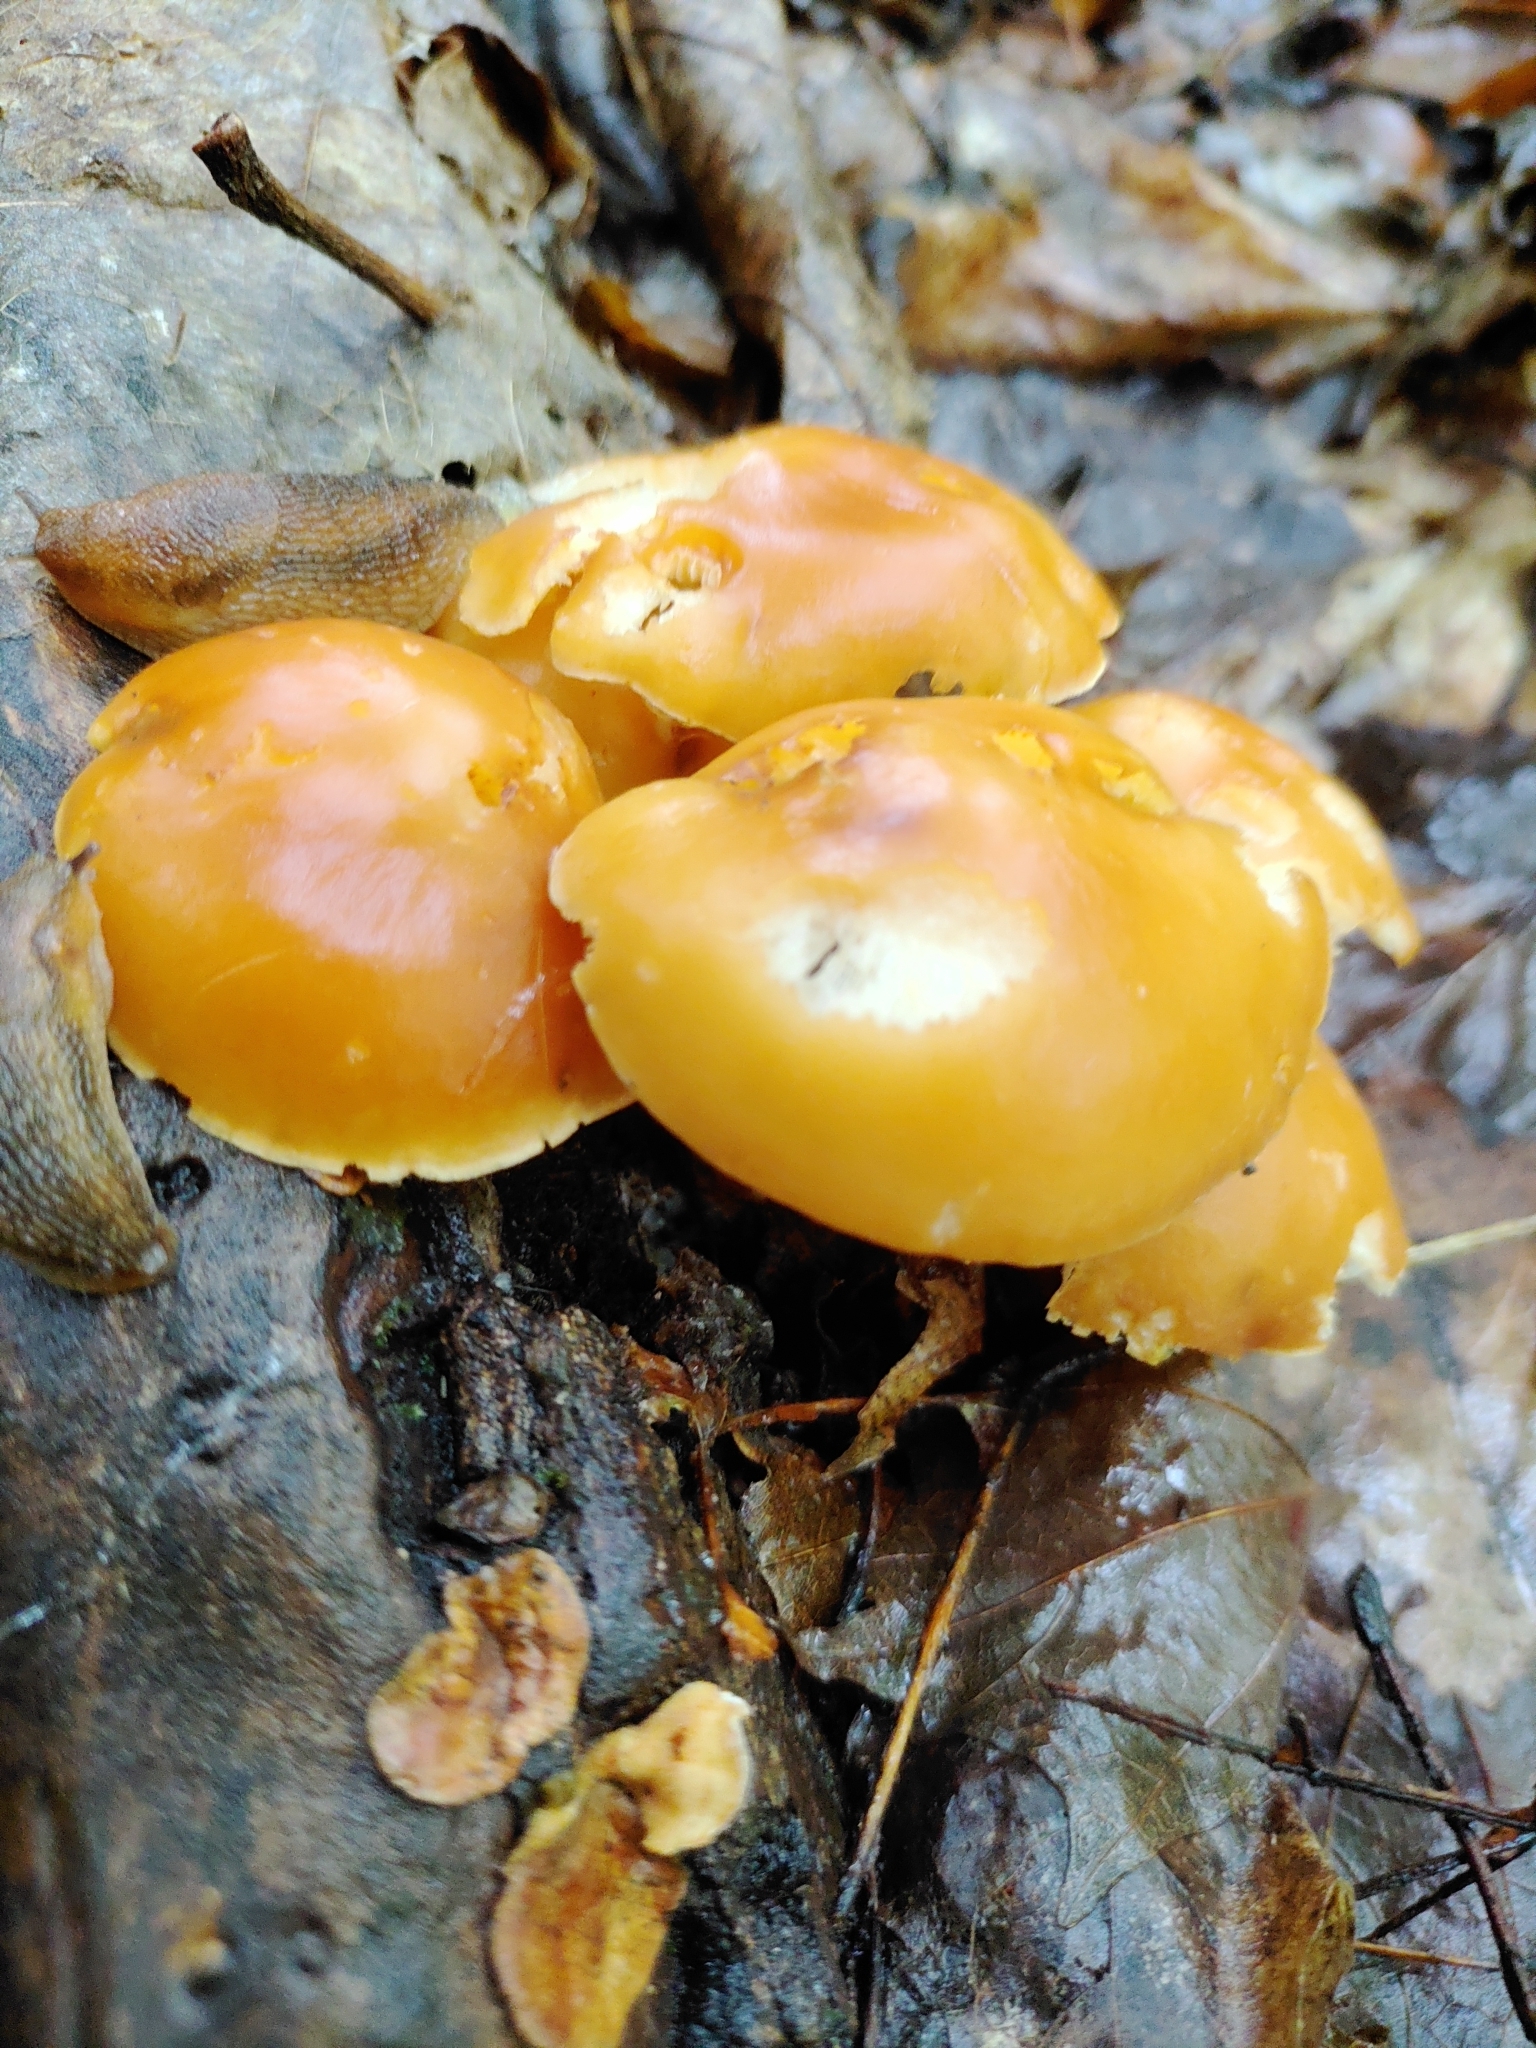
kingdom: Fungi
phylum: Basidiomycota
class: Agaricomycetes
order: Agaricales
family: Omphalotaceae
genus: Gymnopus
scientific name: Gymnopus dryophilus
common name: Penny top
